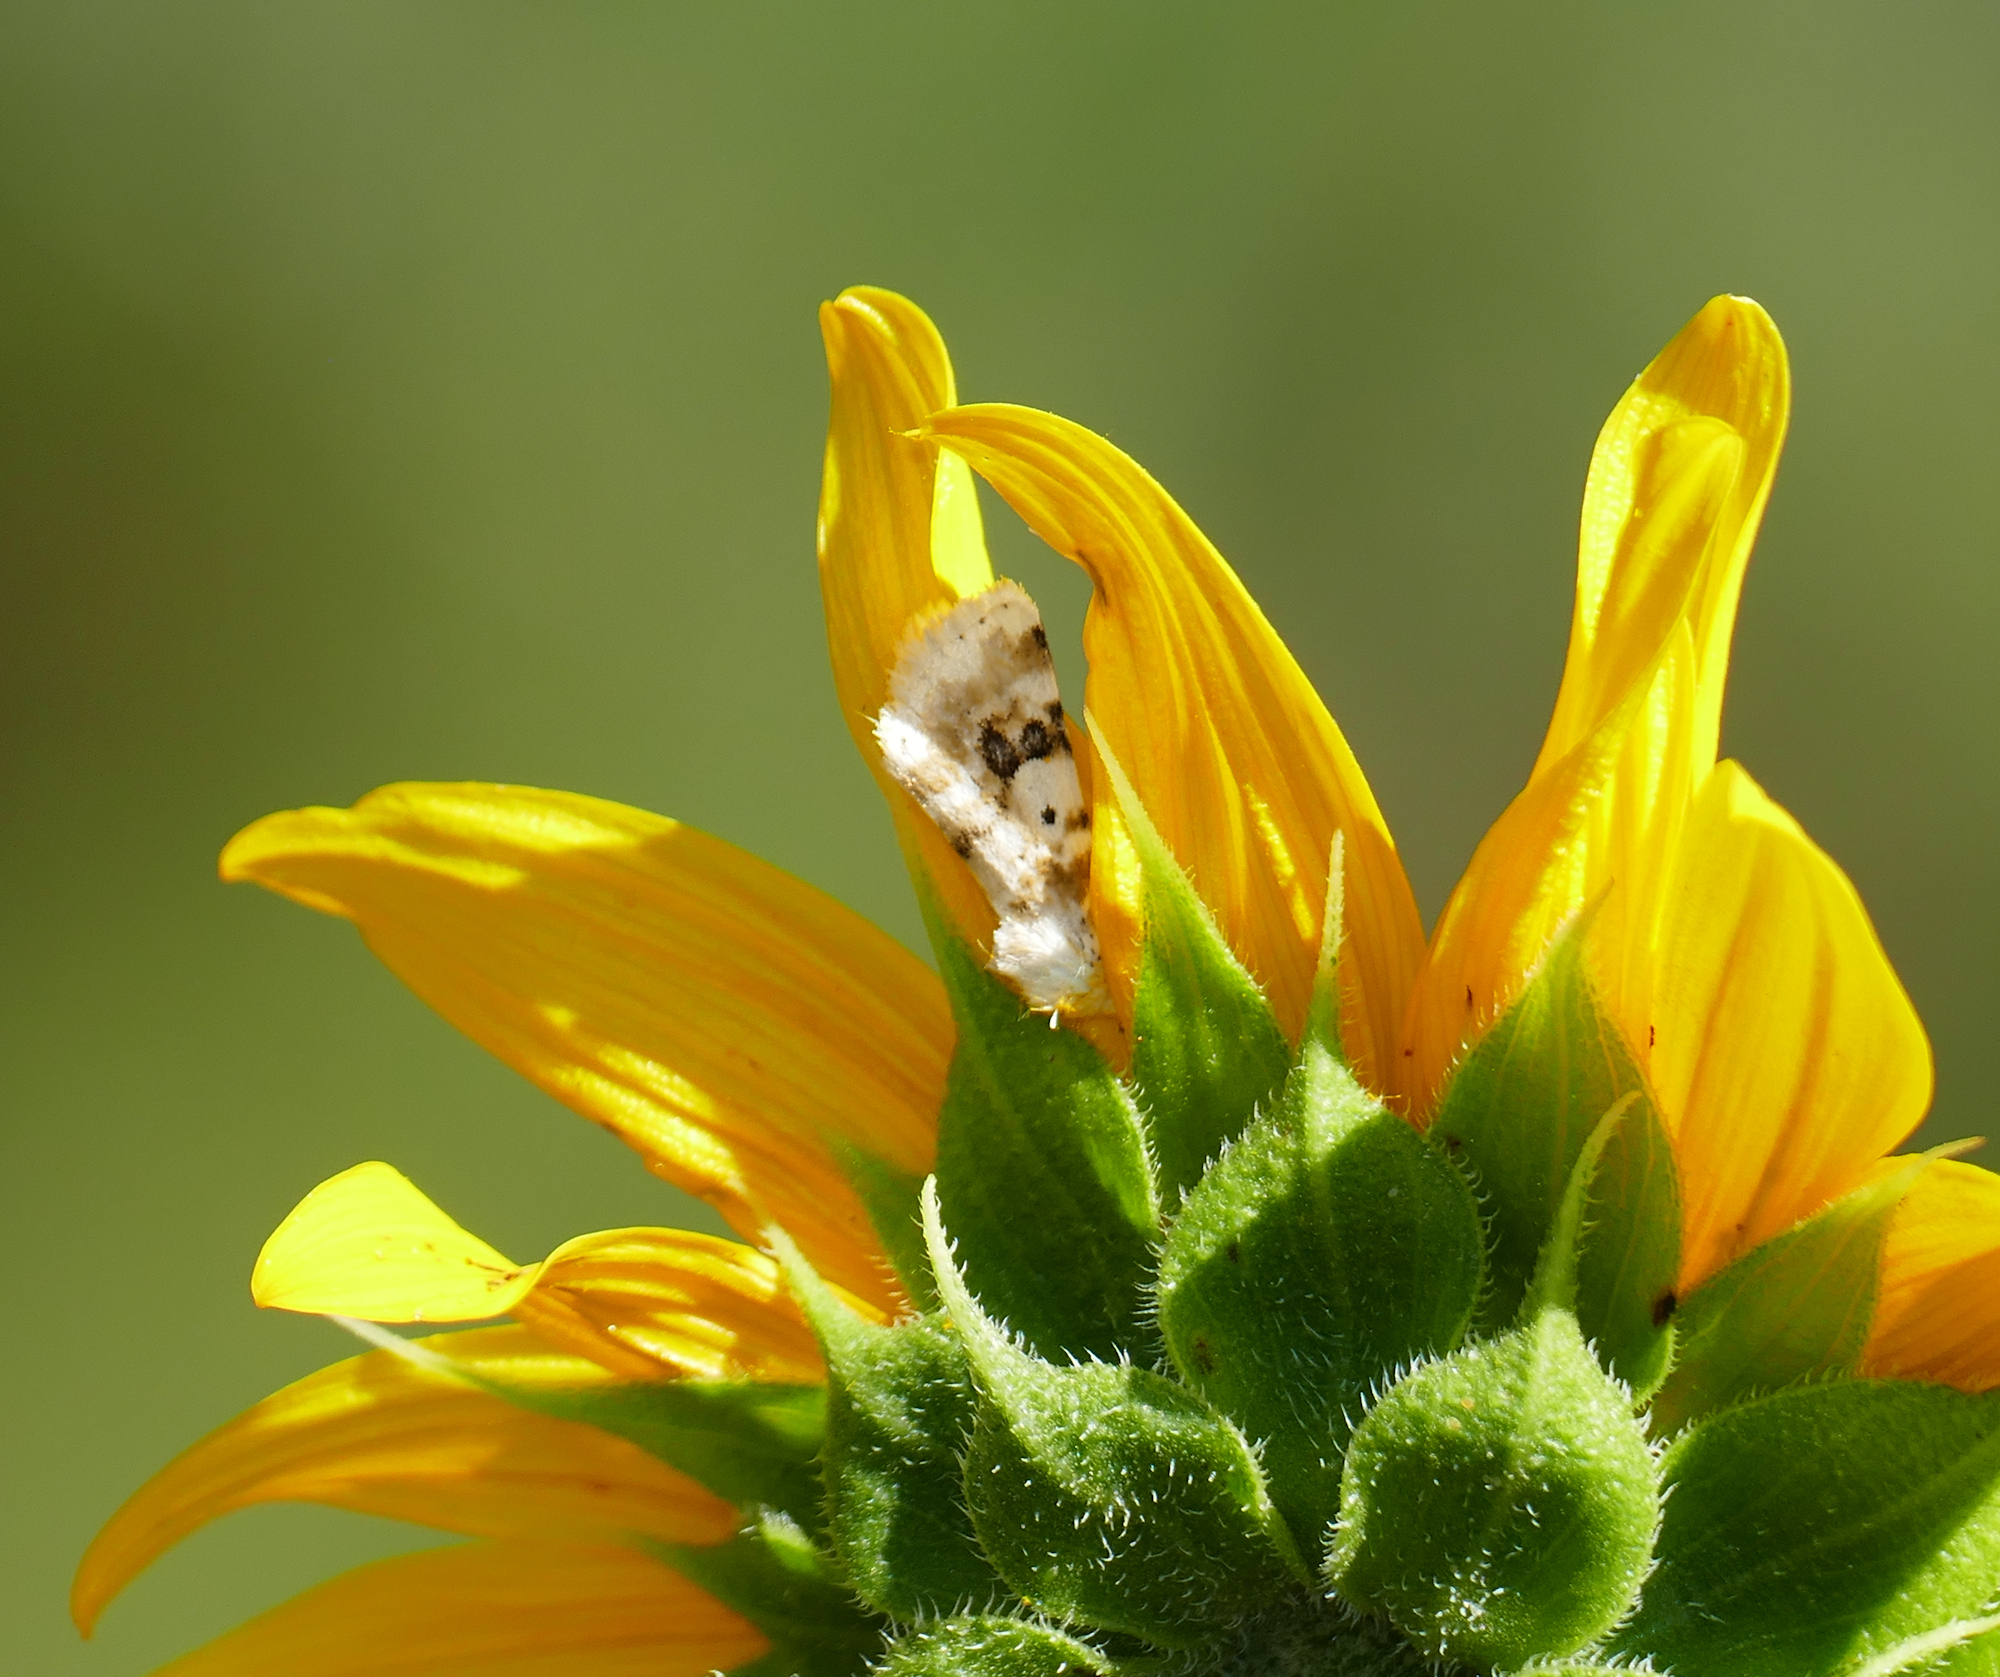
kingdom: Animalia
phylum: Arthropoda
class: Insecta
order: Lepidoptera
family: Noctuidae
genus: Schinia
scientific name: Schinia nundina
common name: Goldenrod flower moth
